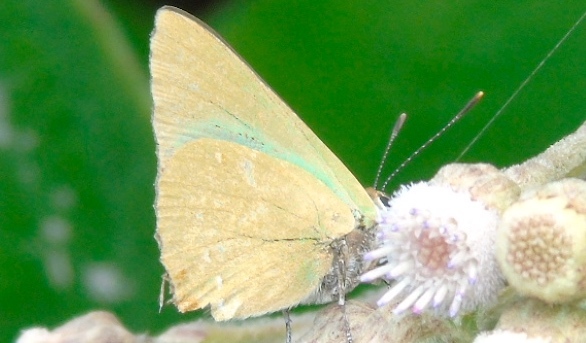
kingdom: Animalia
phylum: Arthropoda
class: Insecta
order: Lepidoptera
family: Lycaenidae
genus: Thecla
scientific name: Thecla herodotus
